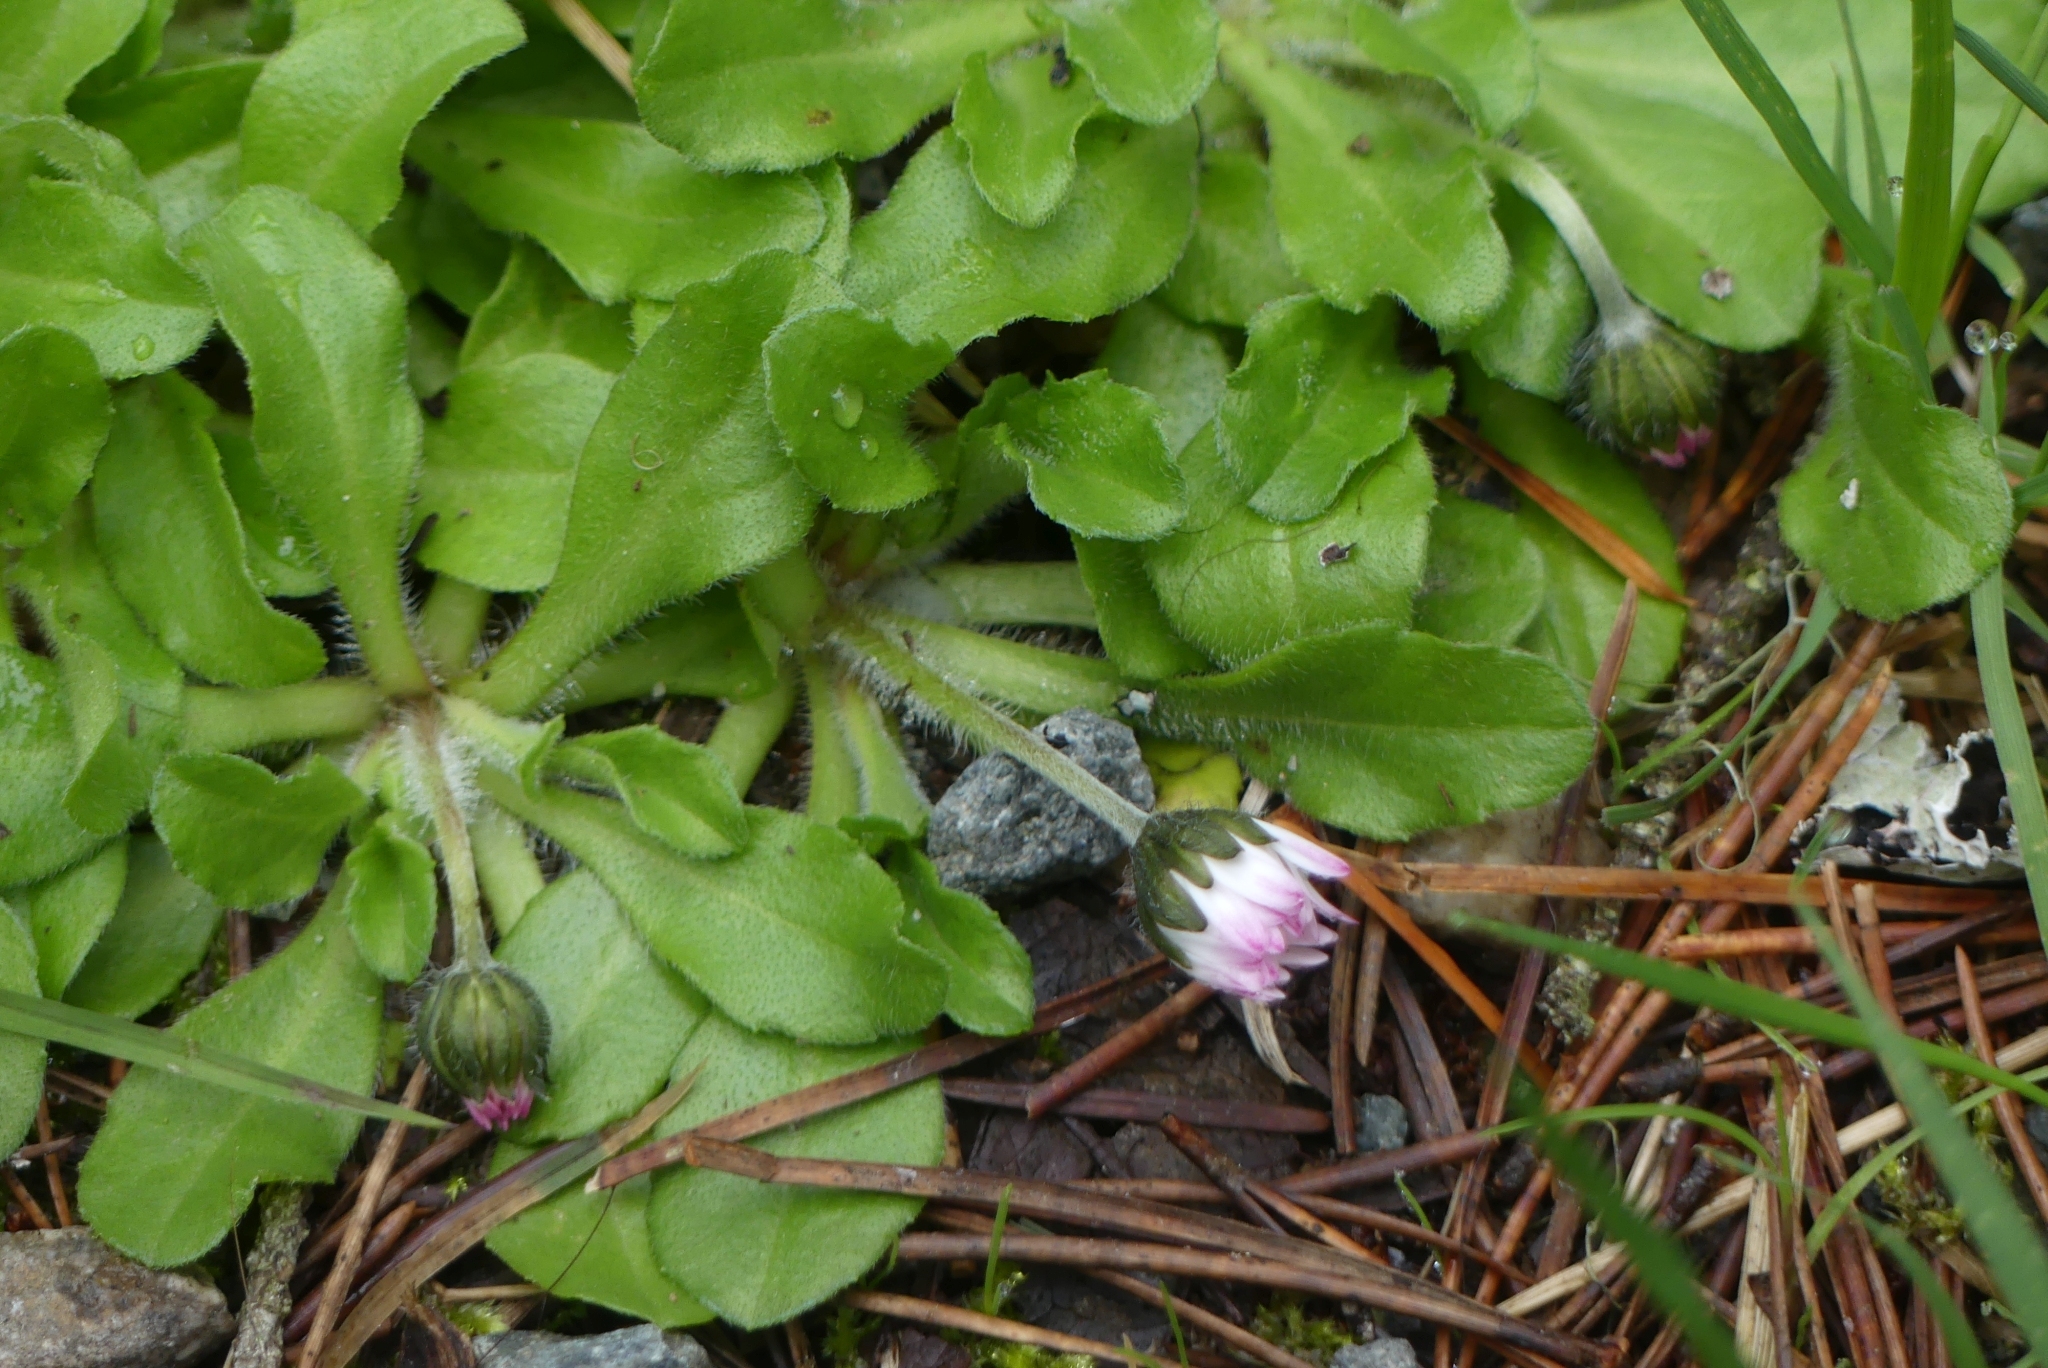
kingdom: Plantae
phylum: Tracheophyta
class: Magnoliopsida
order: Asterales
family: Asteraceae
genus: Bellis
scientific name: Bellis perennis
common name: Lawndaisy
